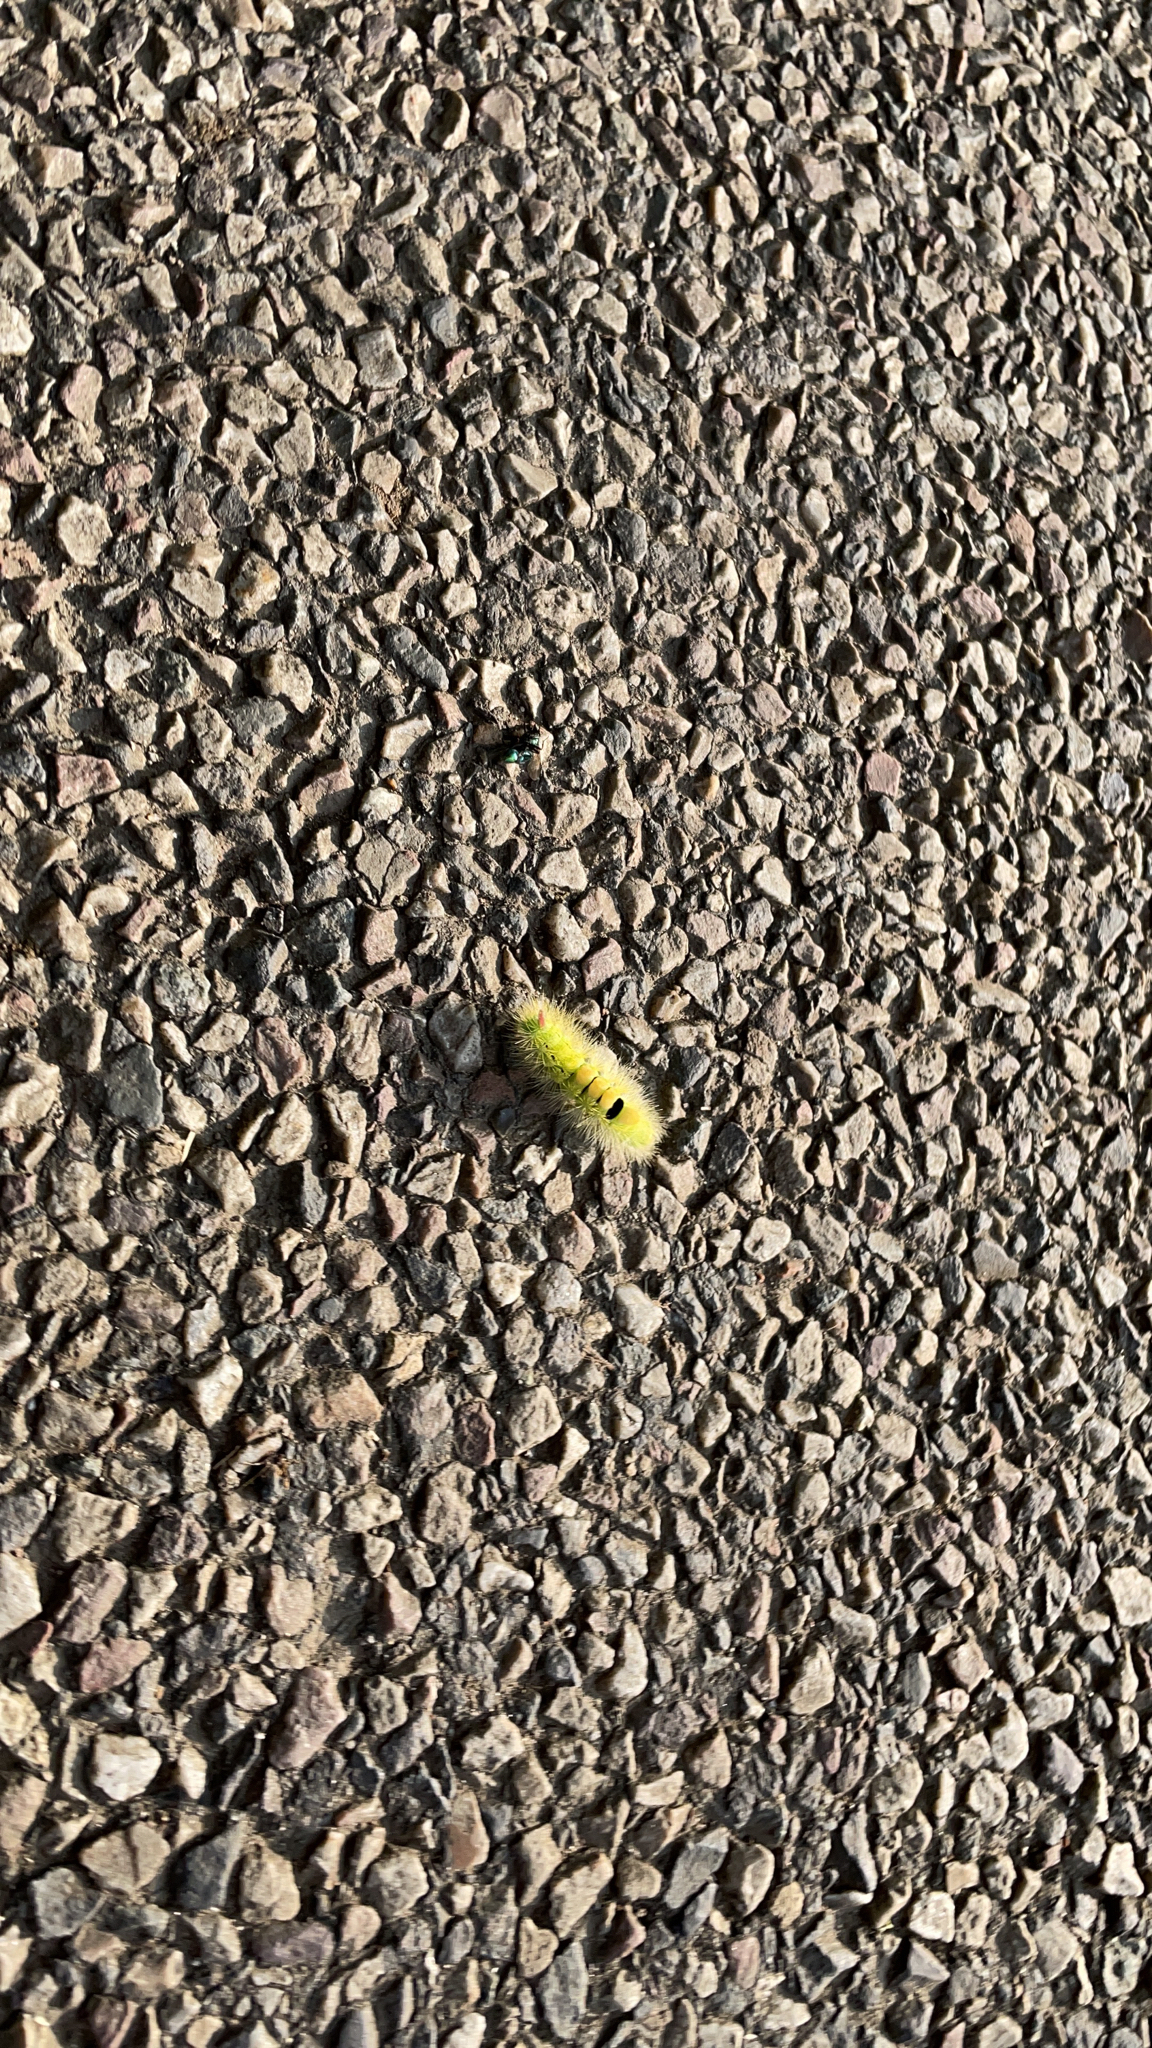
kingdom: Animalia
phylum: Arthropoda
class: Insecta
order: Lepidoptera
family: Erebidae
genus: Calliteara
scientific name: Calliteara pudibunda
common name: Pale tussock
